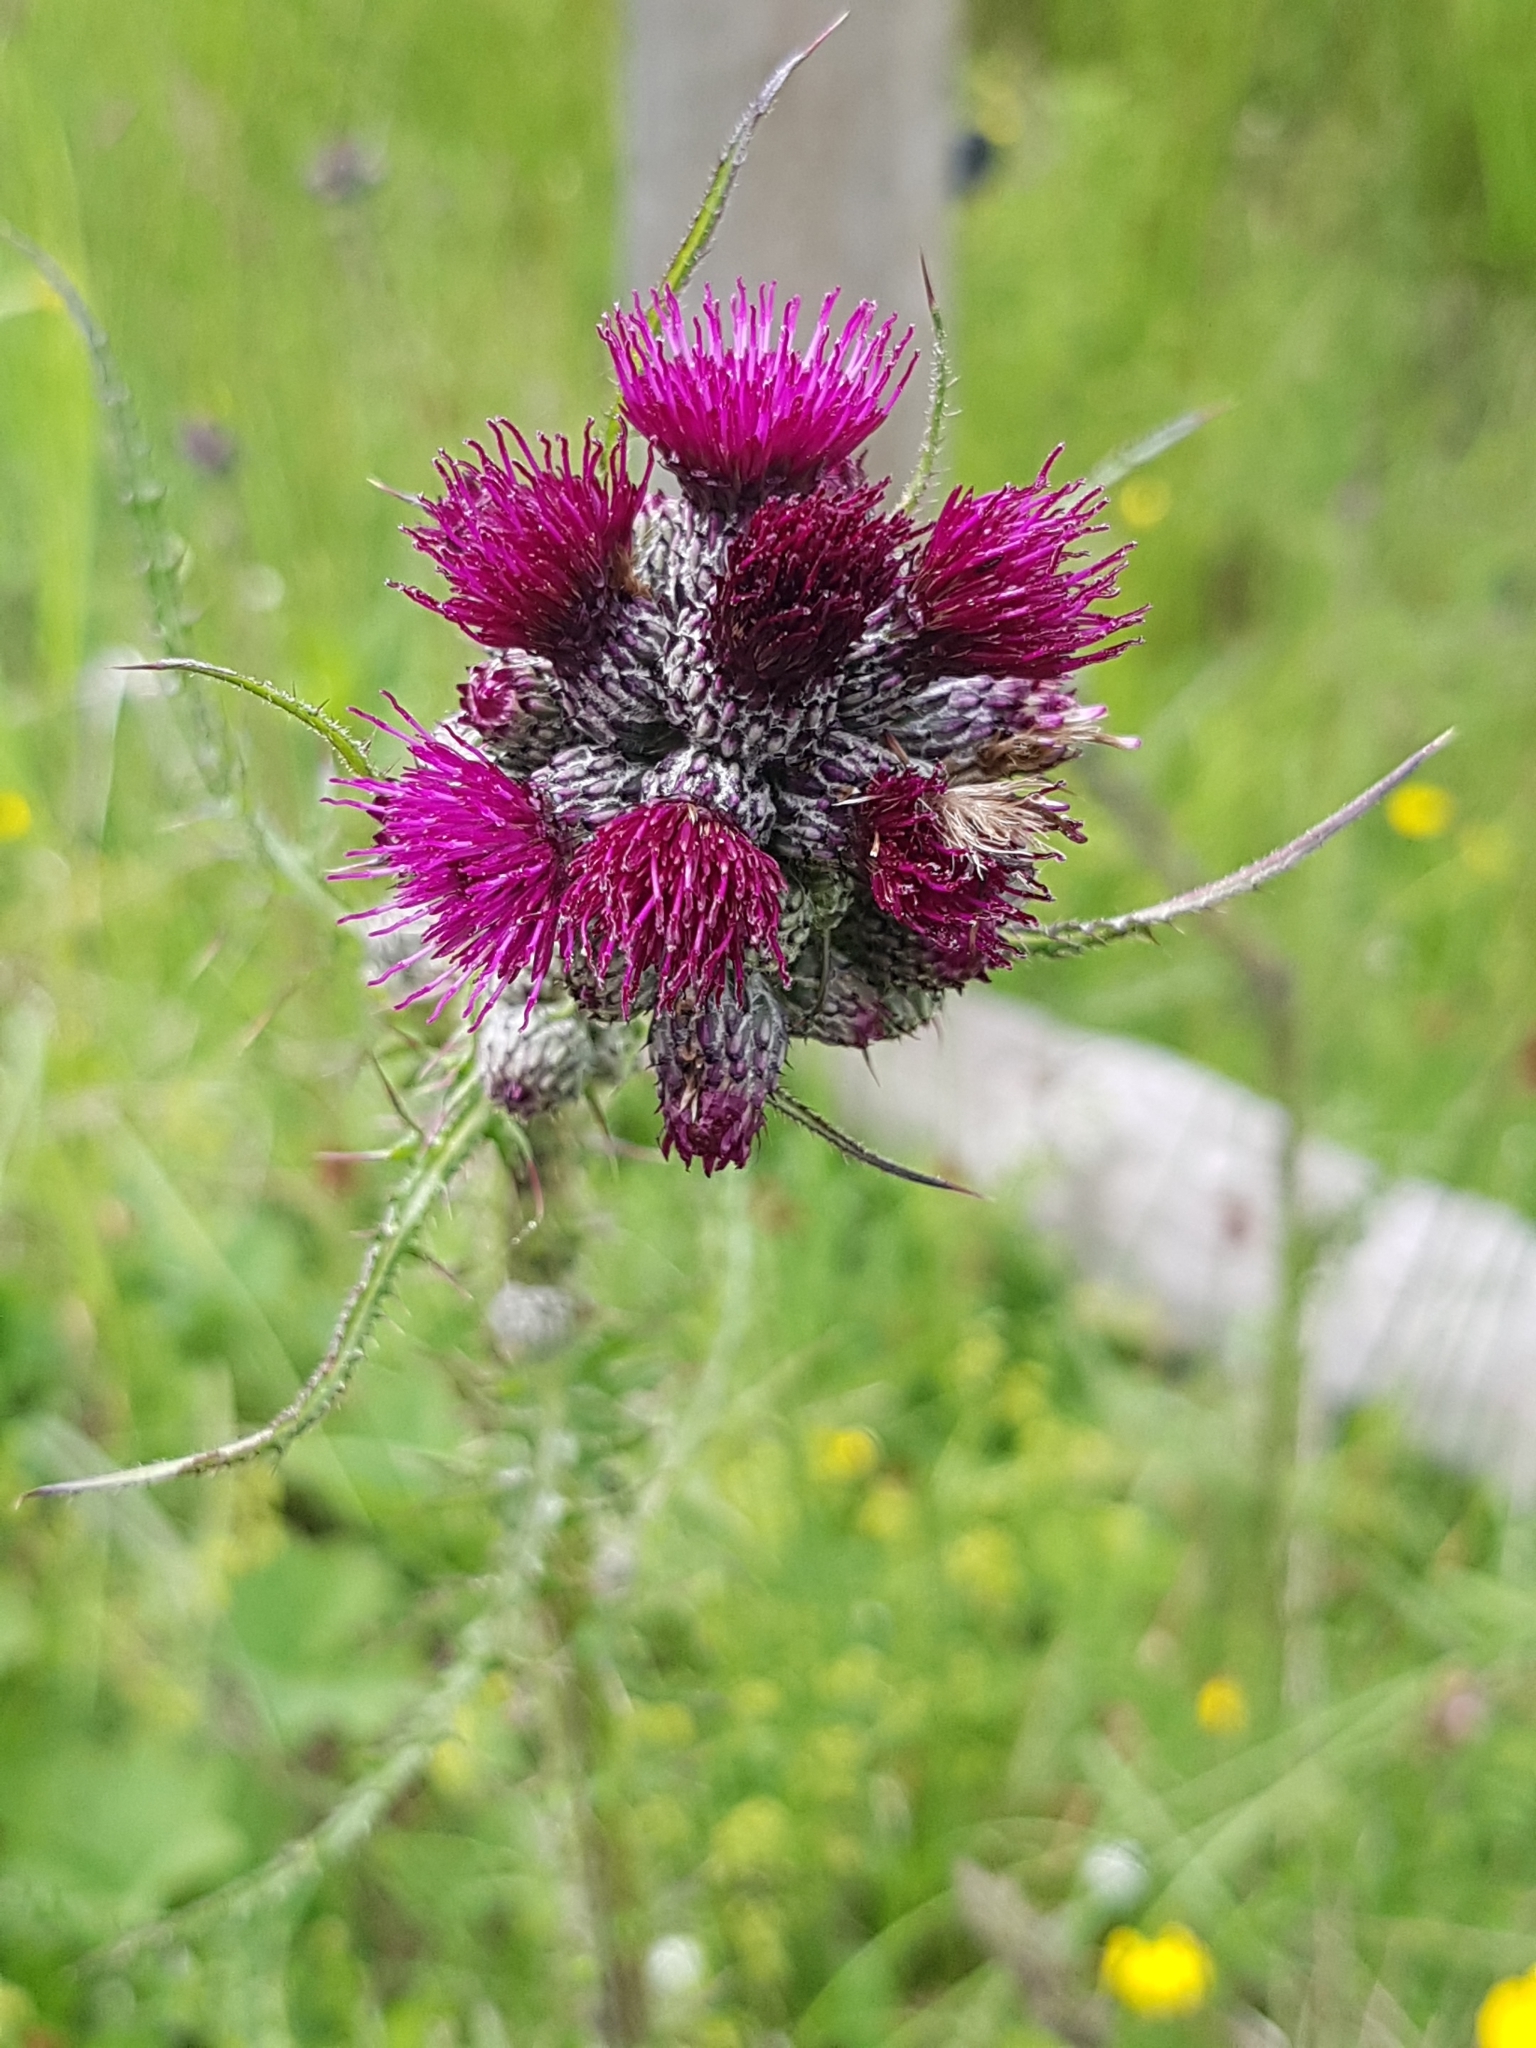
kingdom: Plantae
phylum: Tracheophyta
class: Magnoliopsida
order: Asterales
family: Asteraceae
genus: Cirsium
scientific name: Cirsium palustre
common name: Marsh thistle
